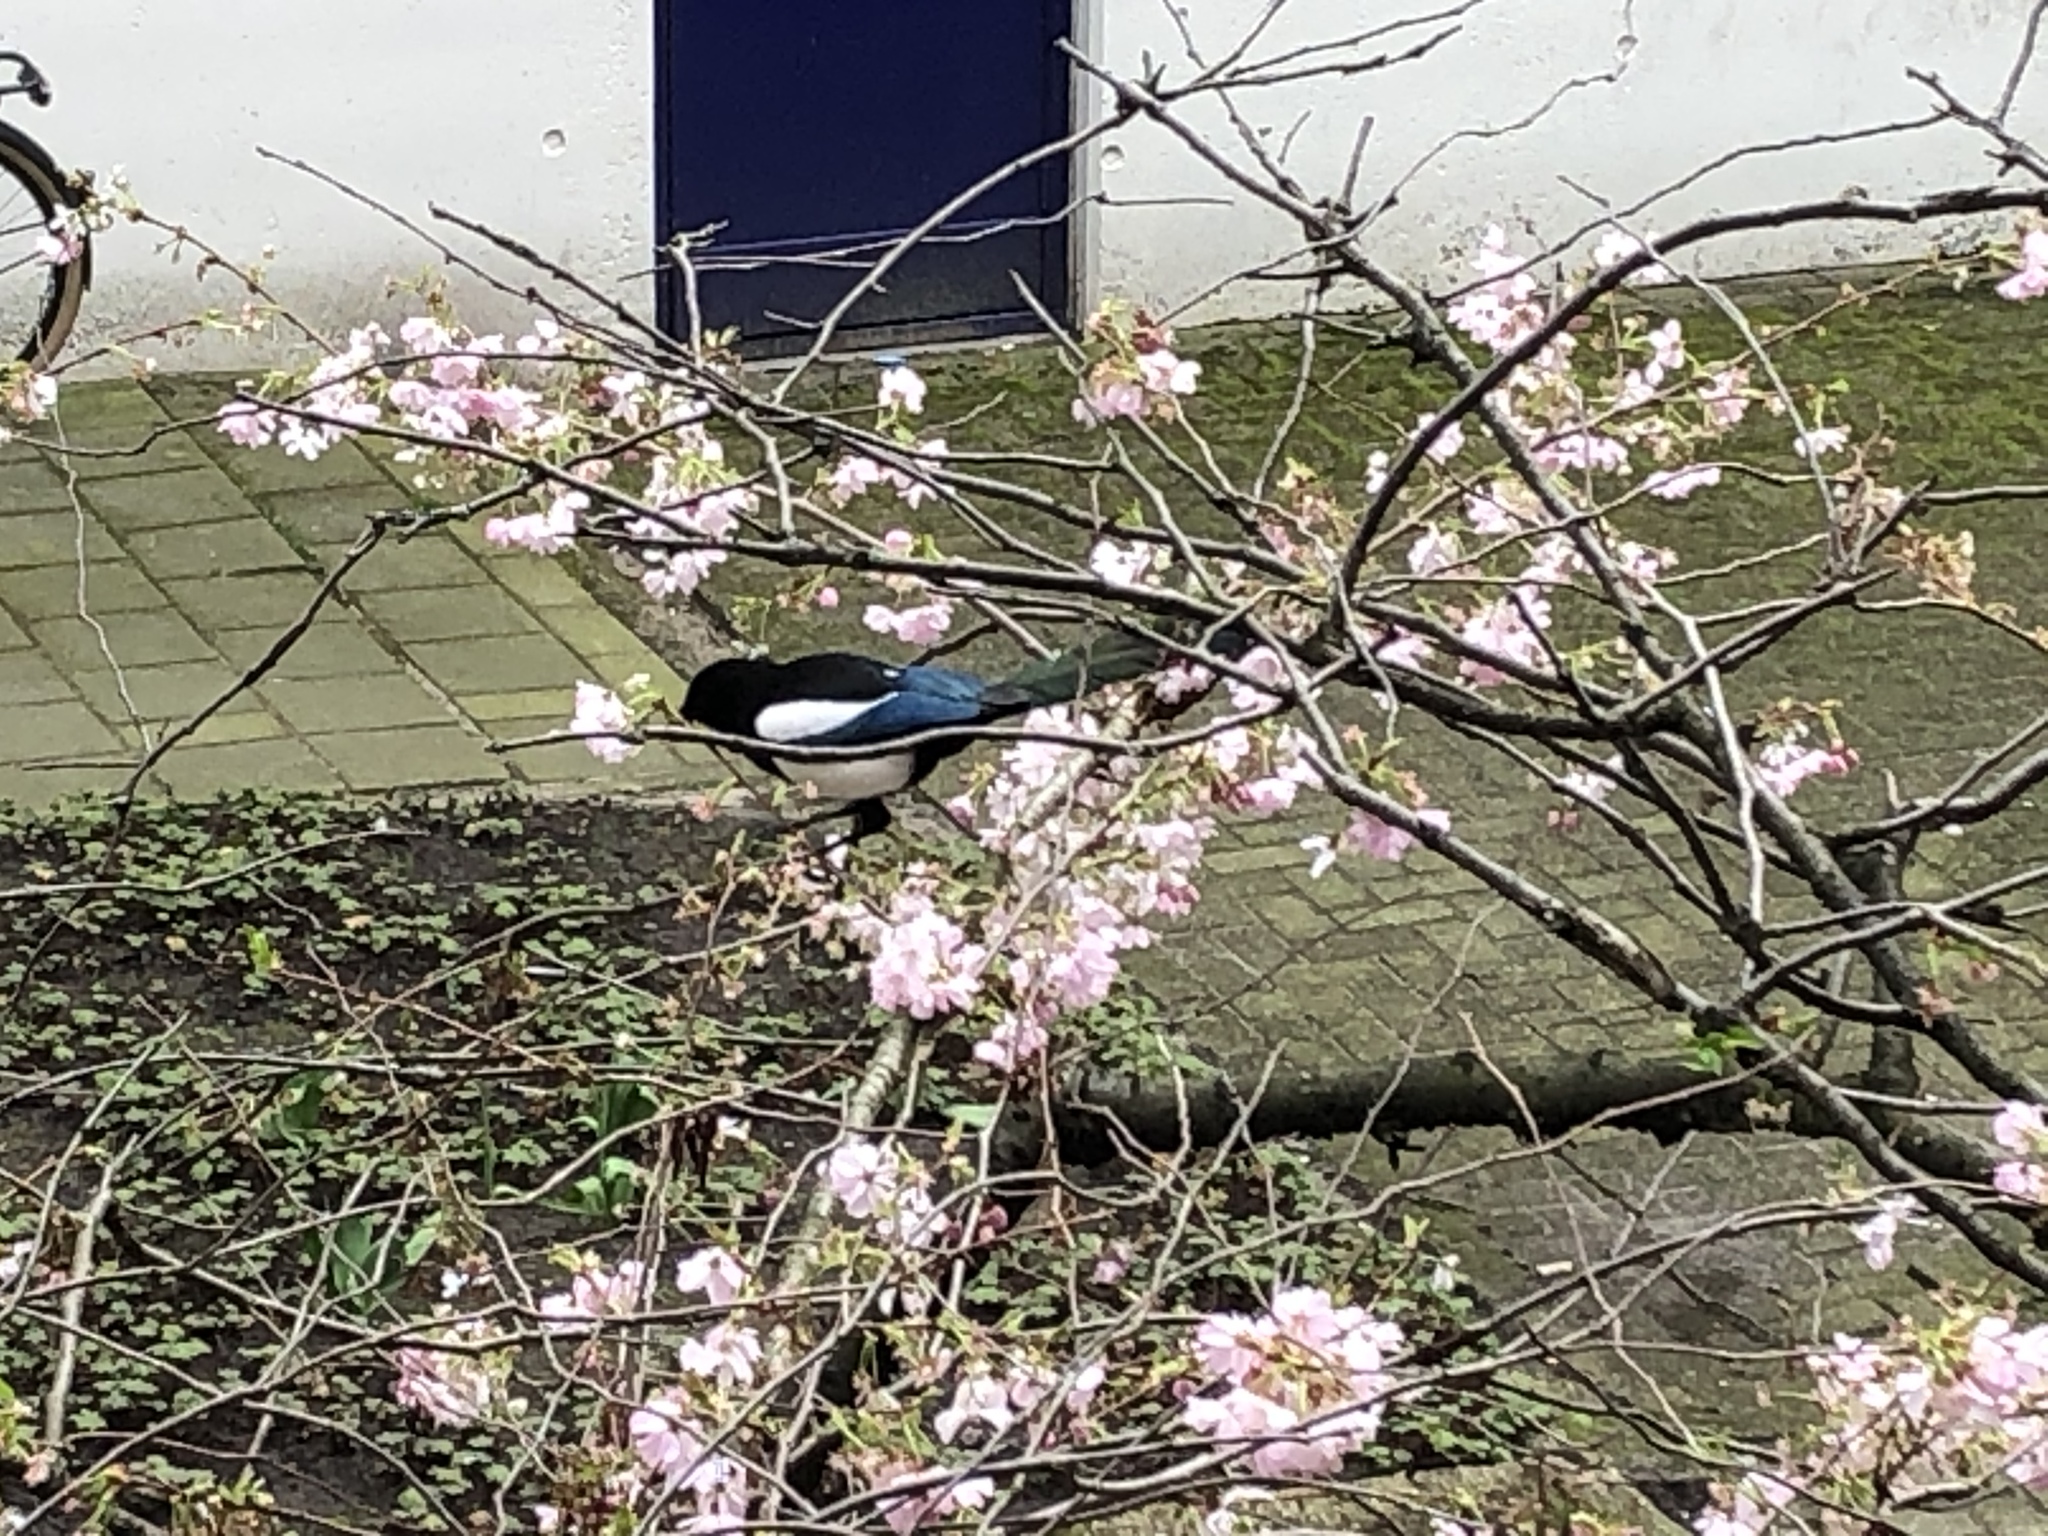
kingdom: Animalia
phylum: Chordata
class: Aves
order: Passeriformes
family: Corvidae
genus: Pica
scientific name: Pica pica
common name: Eurasian magpie
